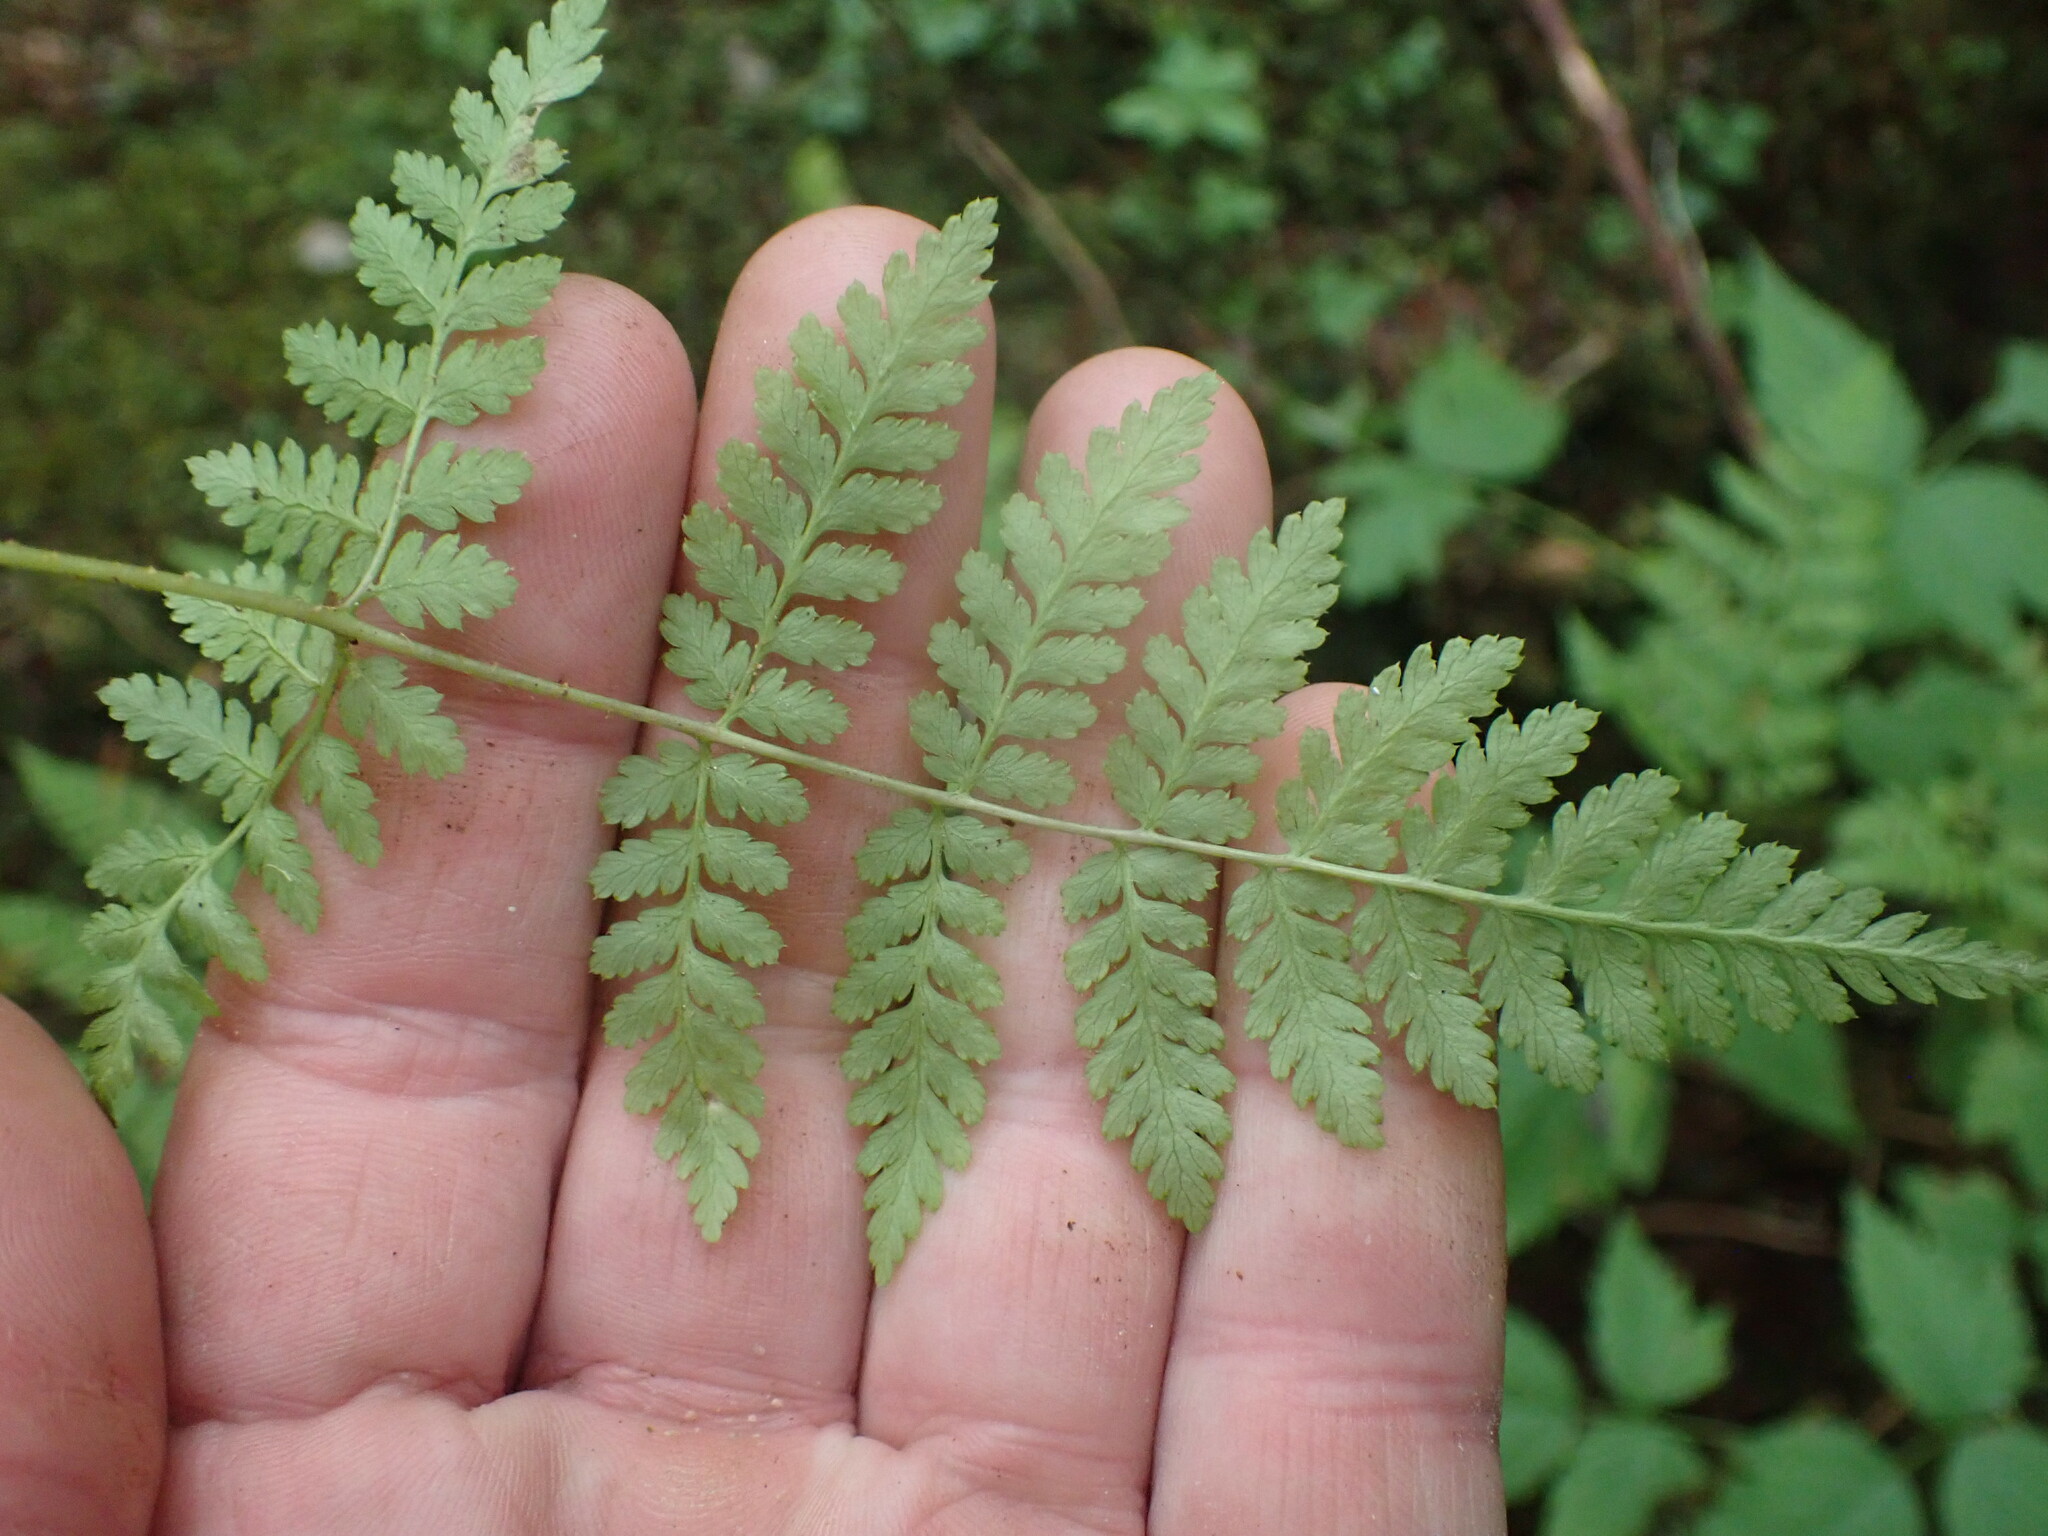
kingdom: Plantae
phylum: Tracheophyta
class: Polypodiopsida
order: Polypodiales
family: Dryopteridaceae
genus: Dryopteris
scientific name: Dryopteris expansa
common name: Northern buckler fern
